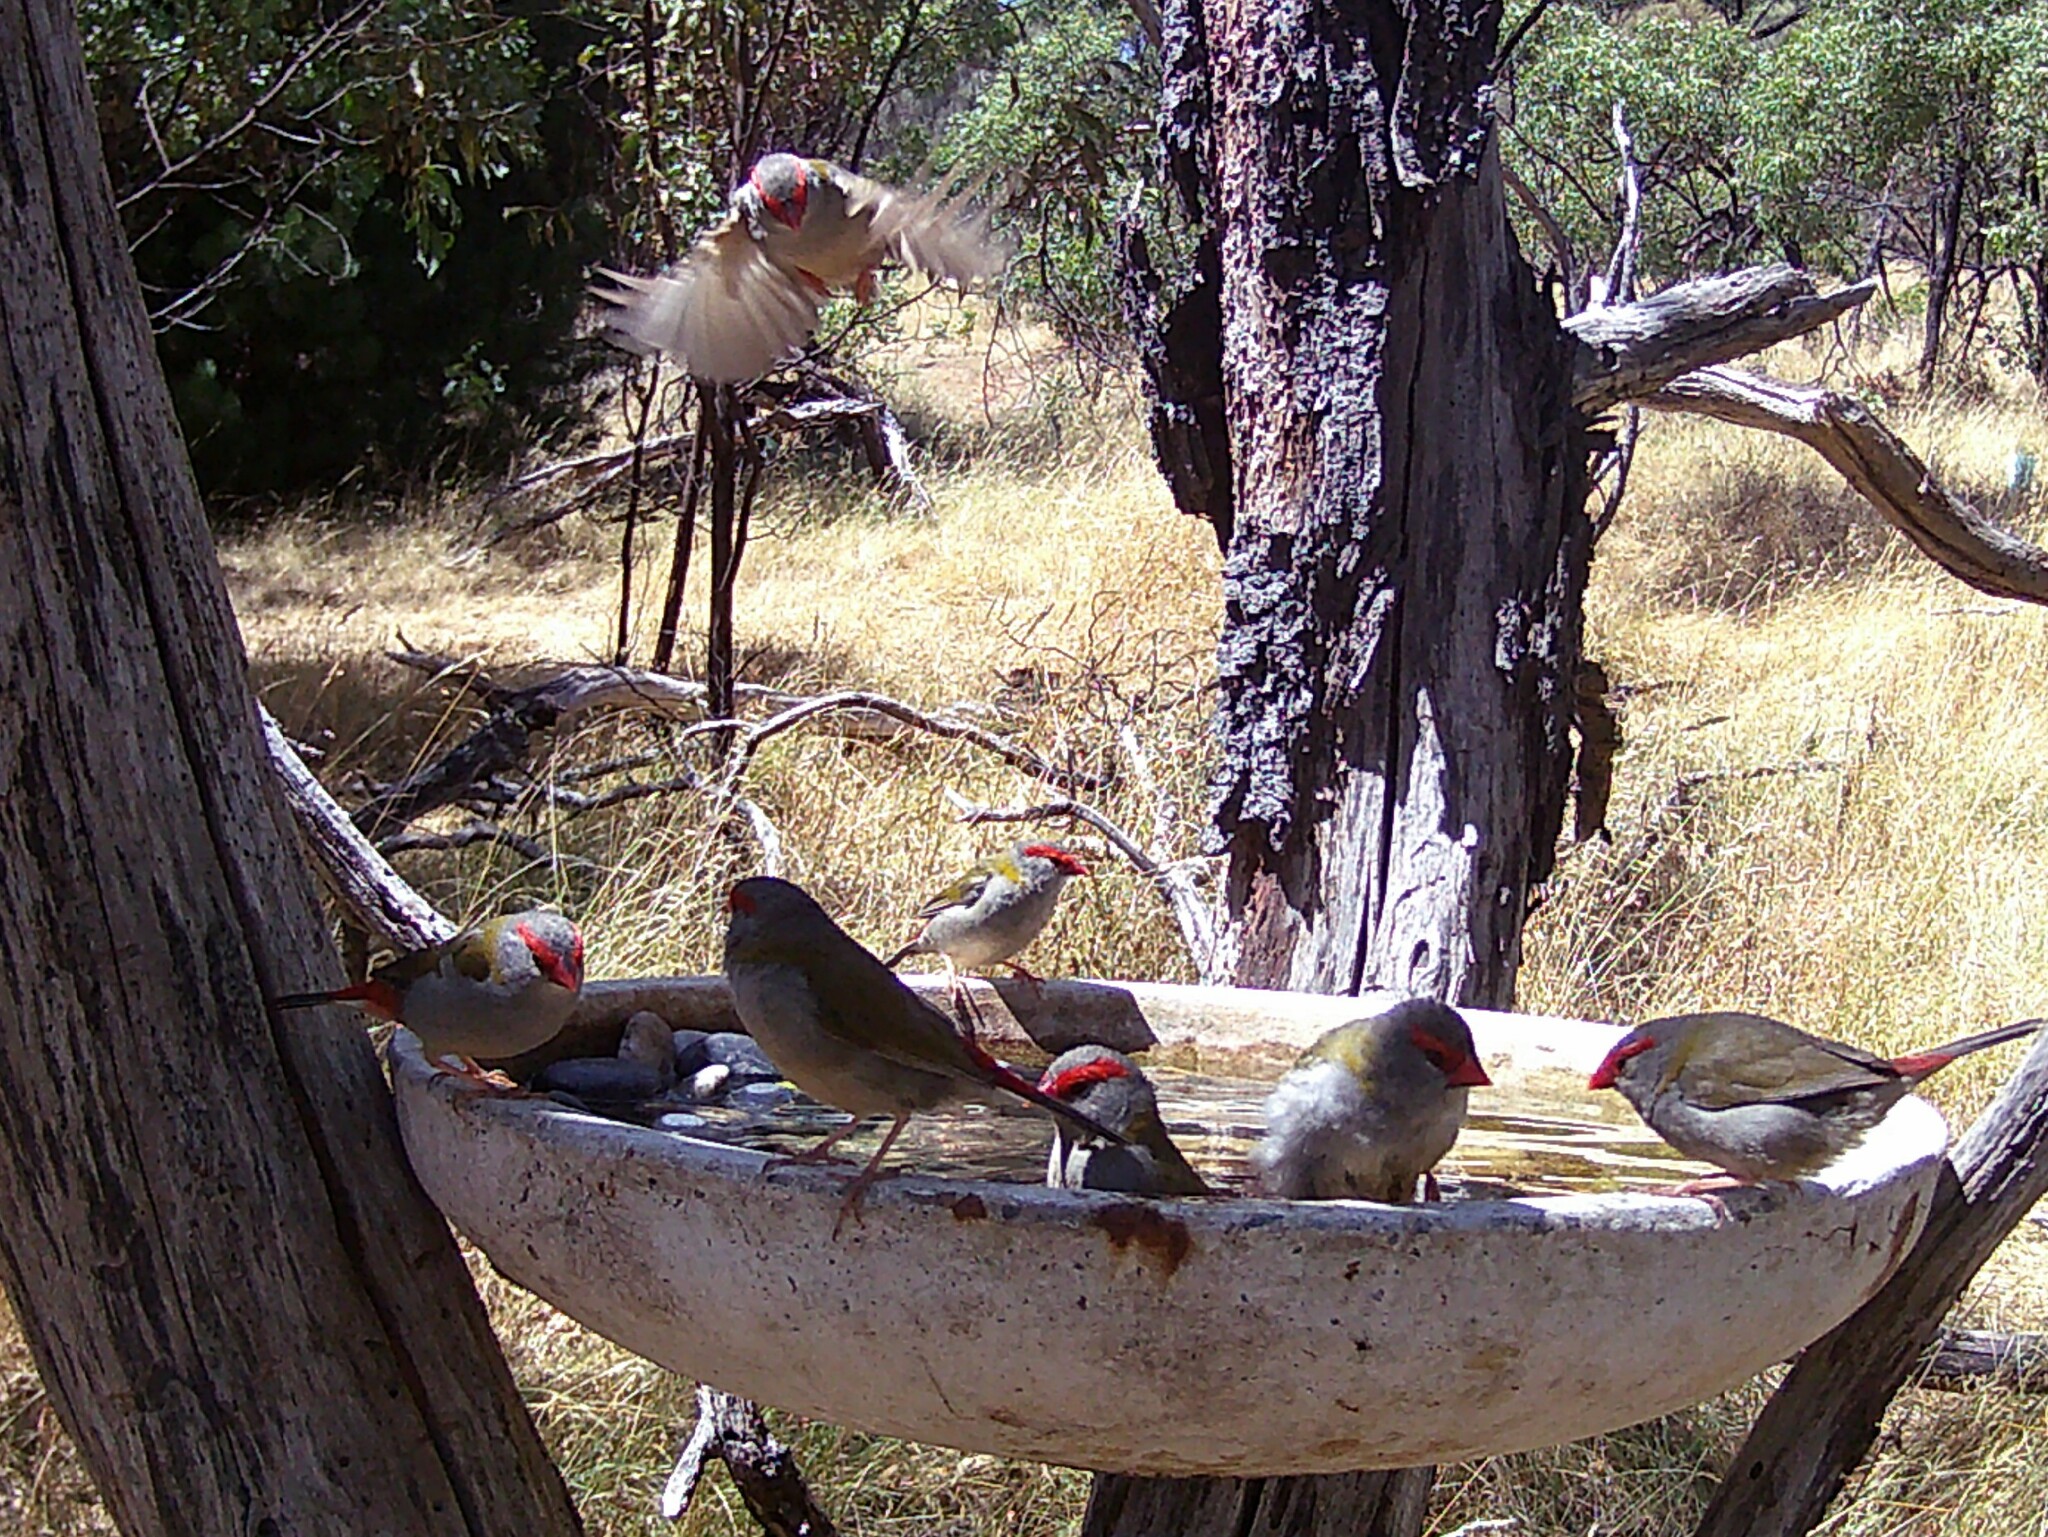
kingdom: Animalia
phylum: Chordata
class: Aves
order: Passeriformes
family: Estrildidae
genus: Neochmia
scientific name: Neochmia temporalis
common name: Red-browed finch
